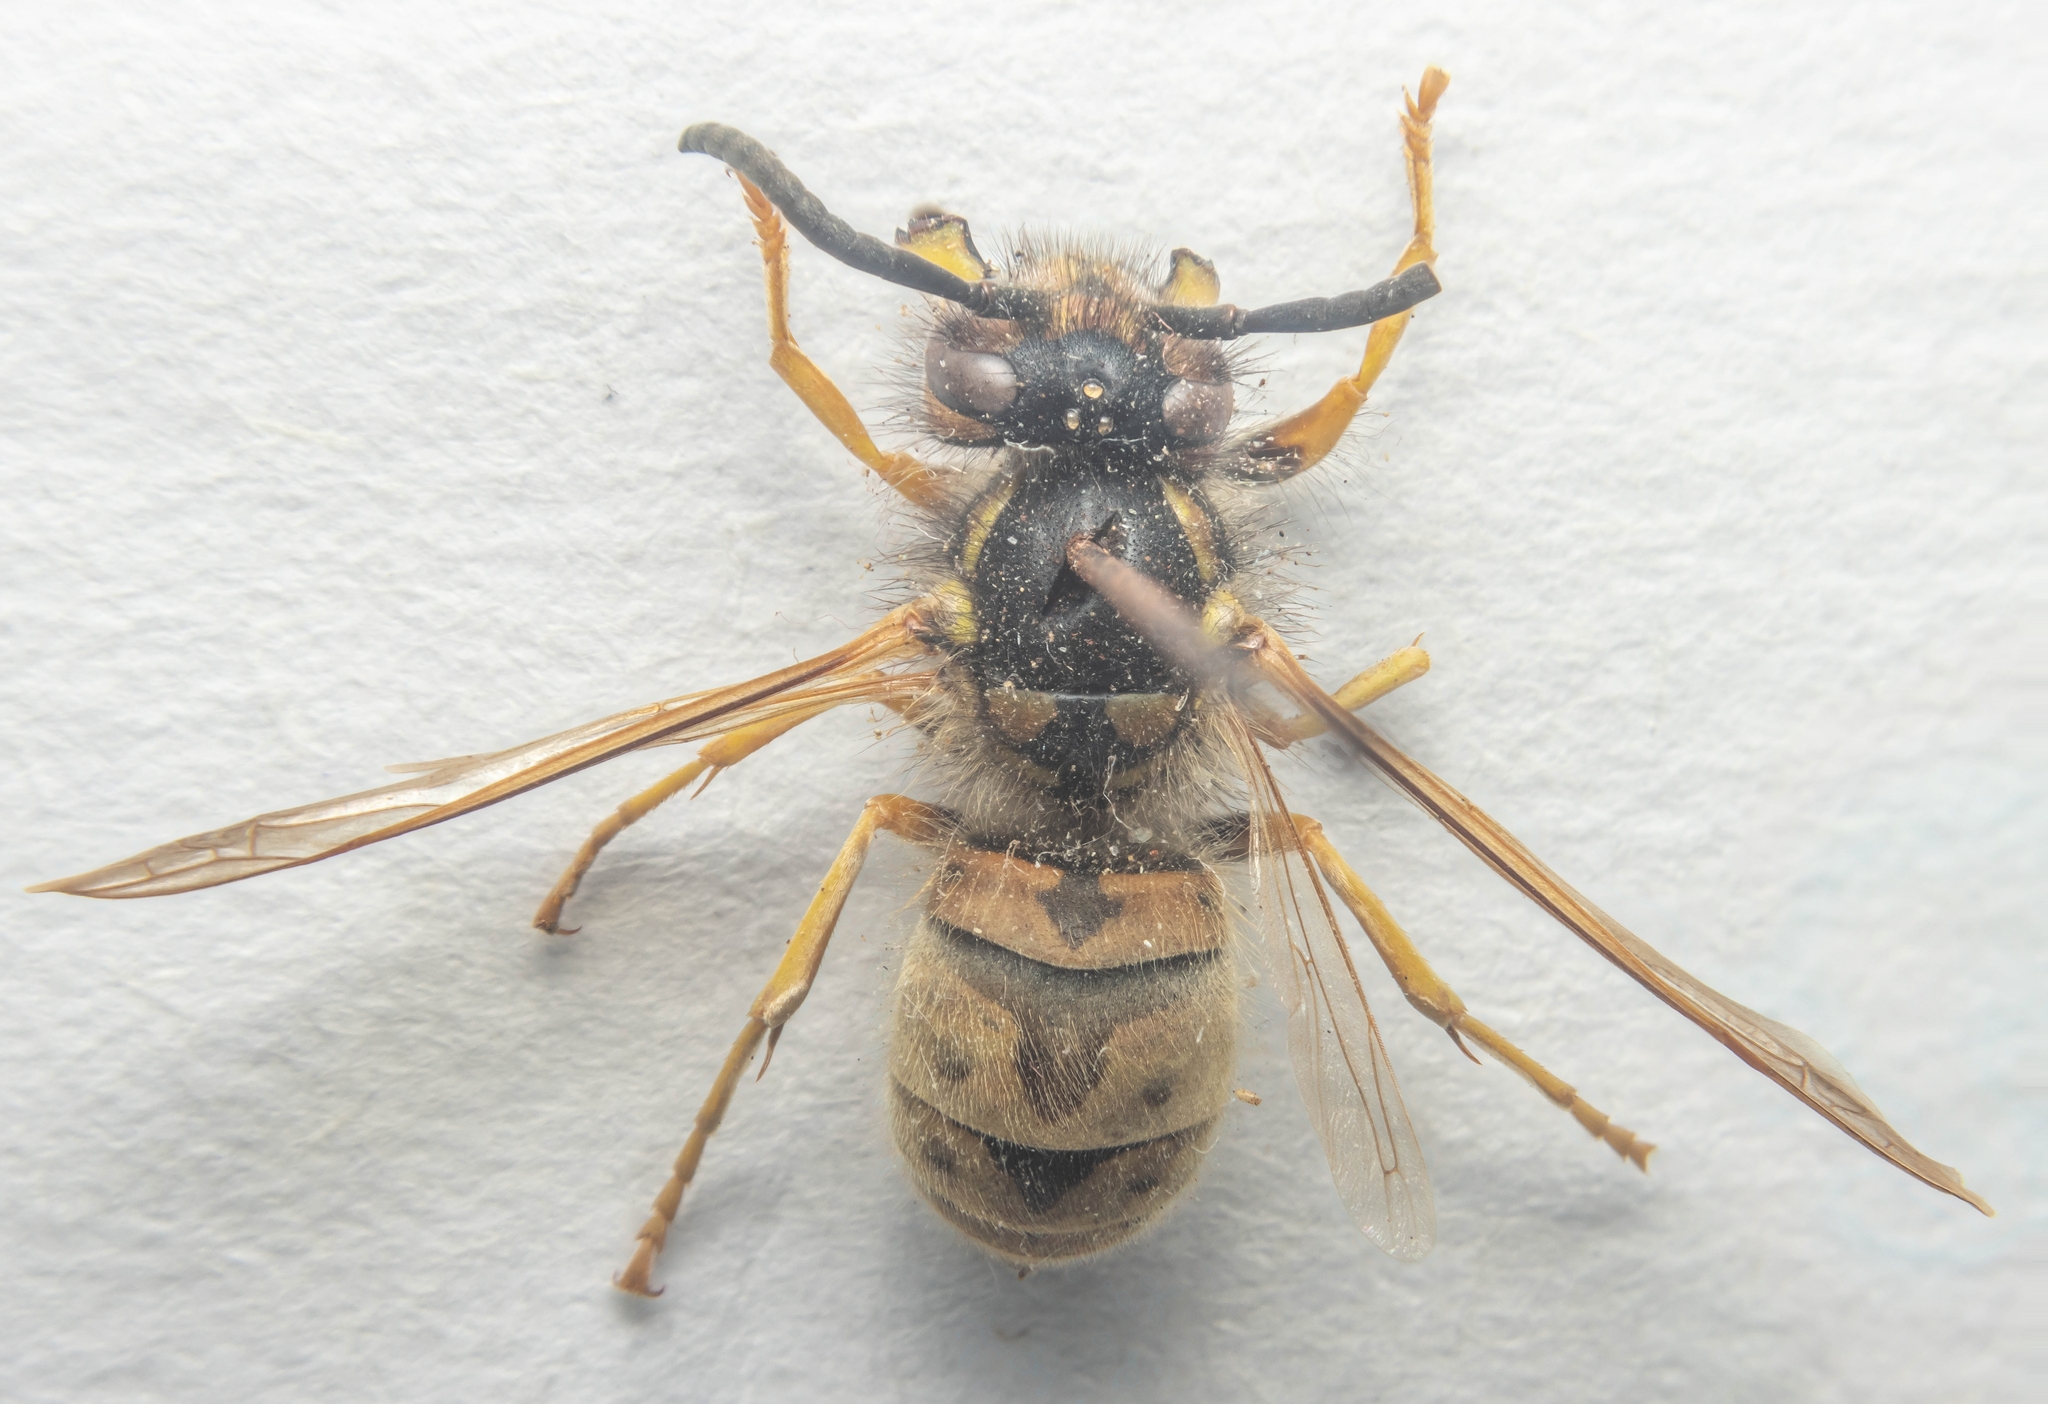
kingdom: Animalia
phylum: Arthropoda
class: Insecta
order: Hymenoptera
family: Vespidae
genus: Vespula
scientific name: Vespula germanica
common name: German wasp
